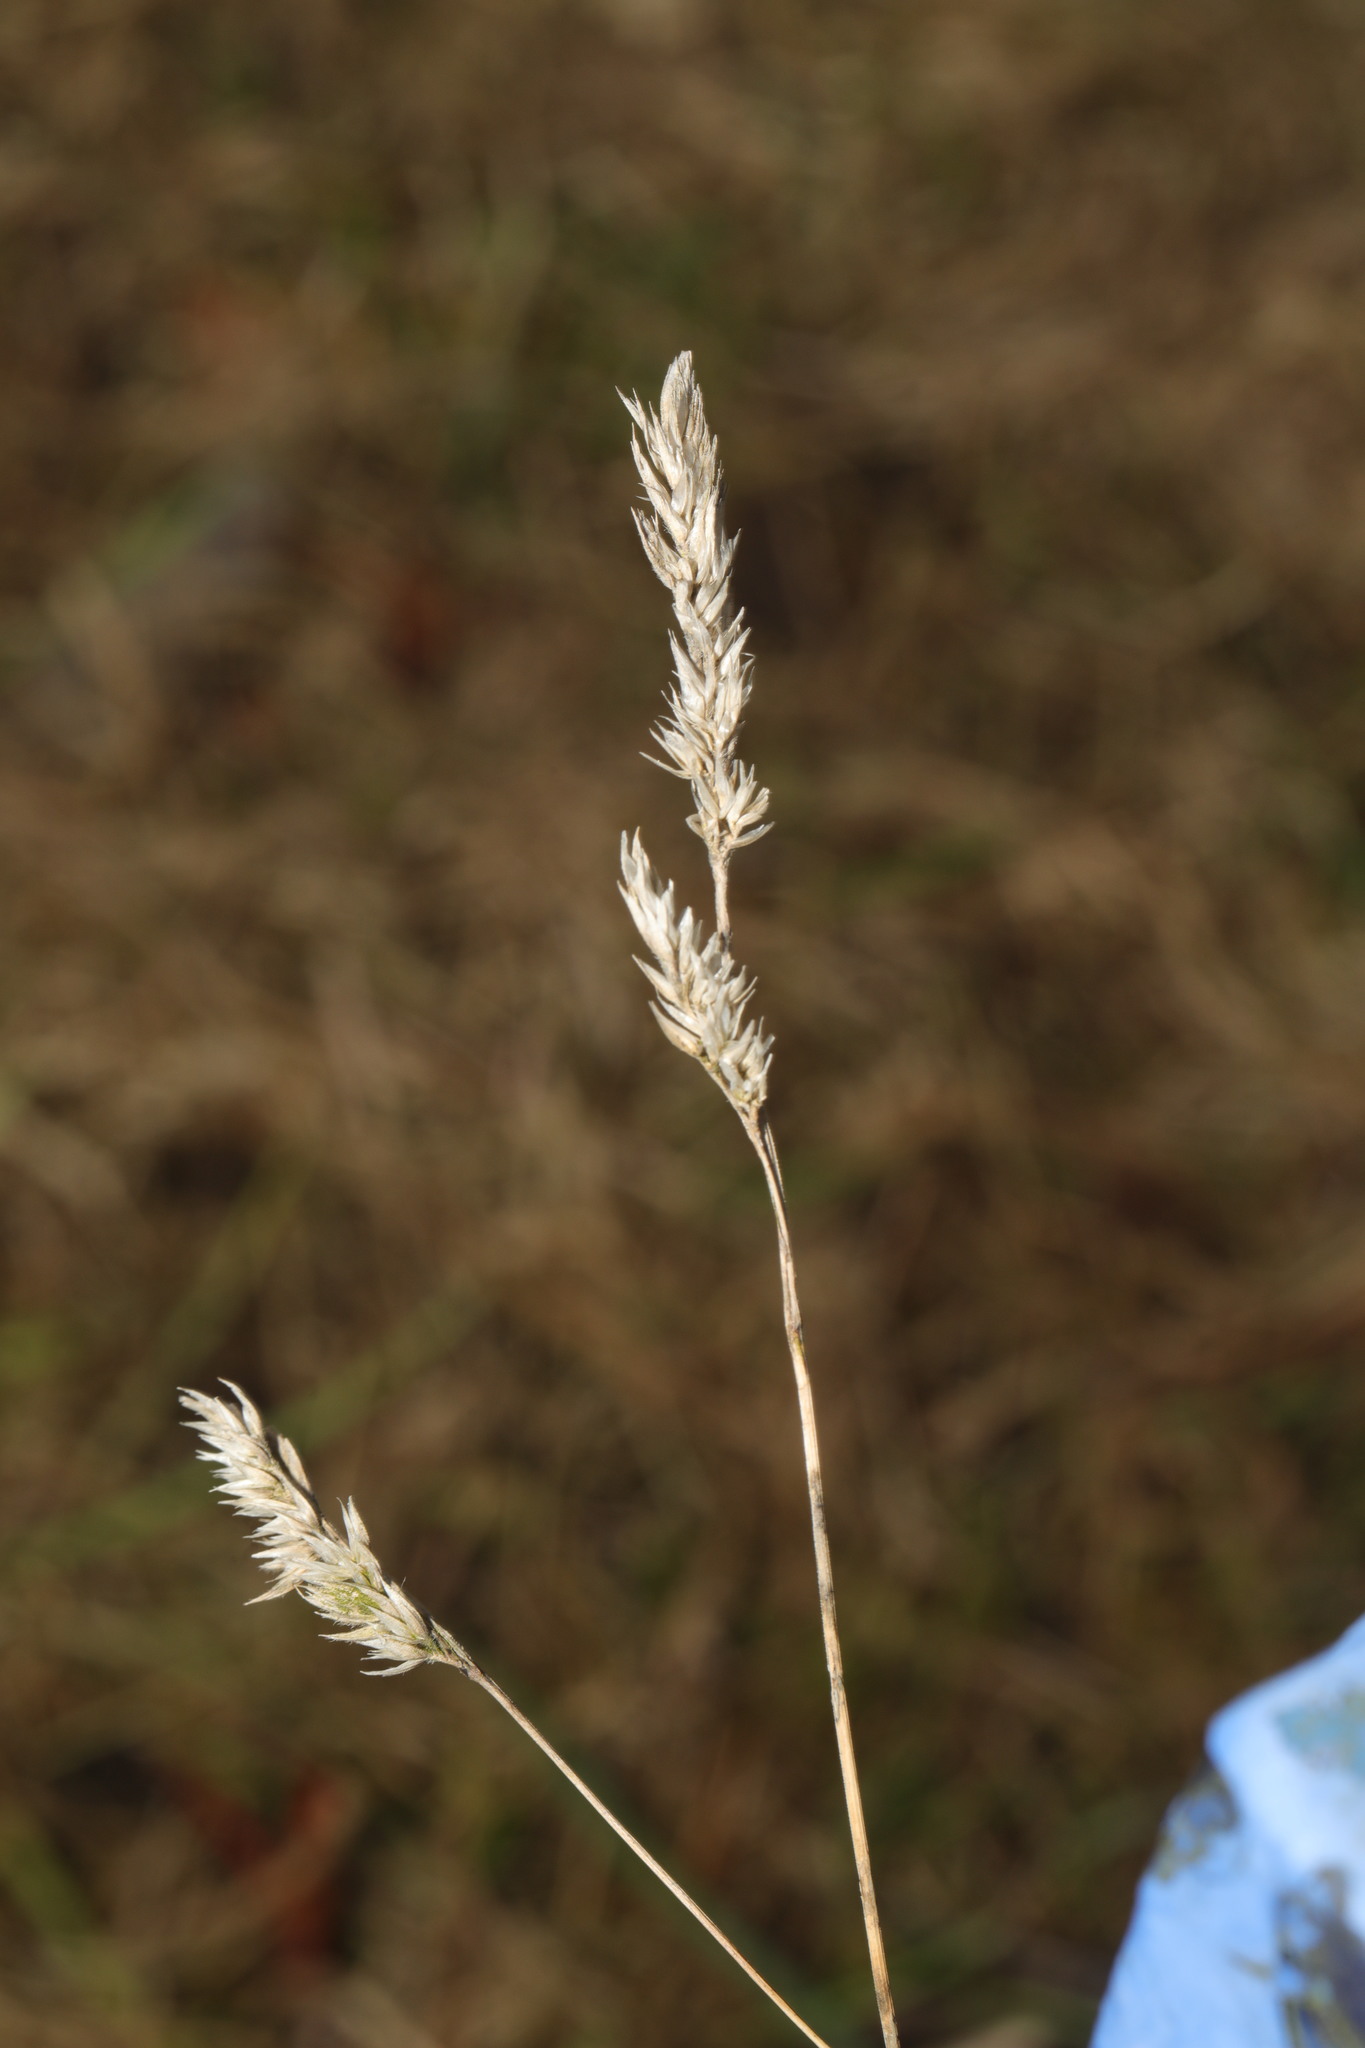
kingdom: Plantae
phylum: Tracheophyta
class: Liliopsida
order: Poales
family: Poaceae
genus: Dactylis
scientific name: Dactylis glomerata
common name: Orchardgrass
